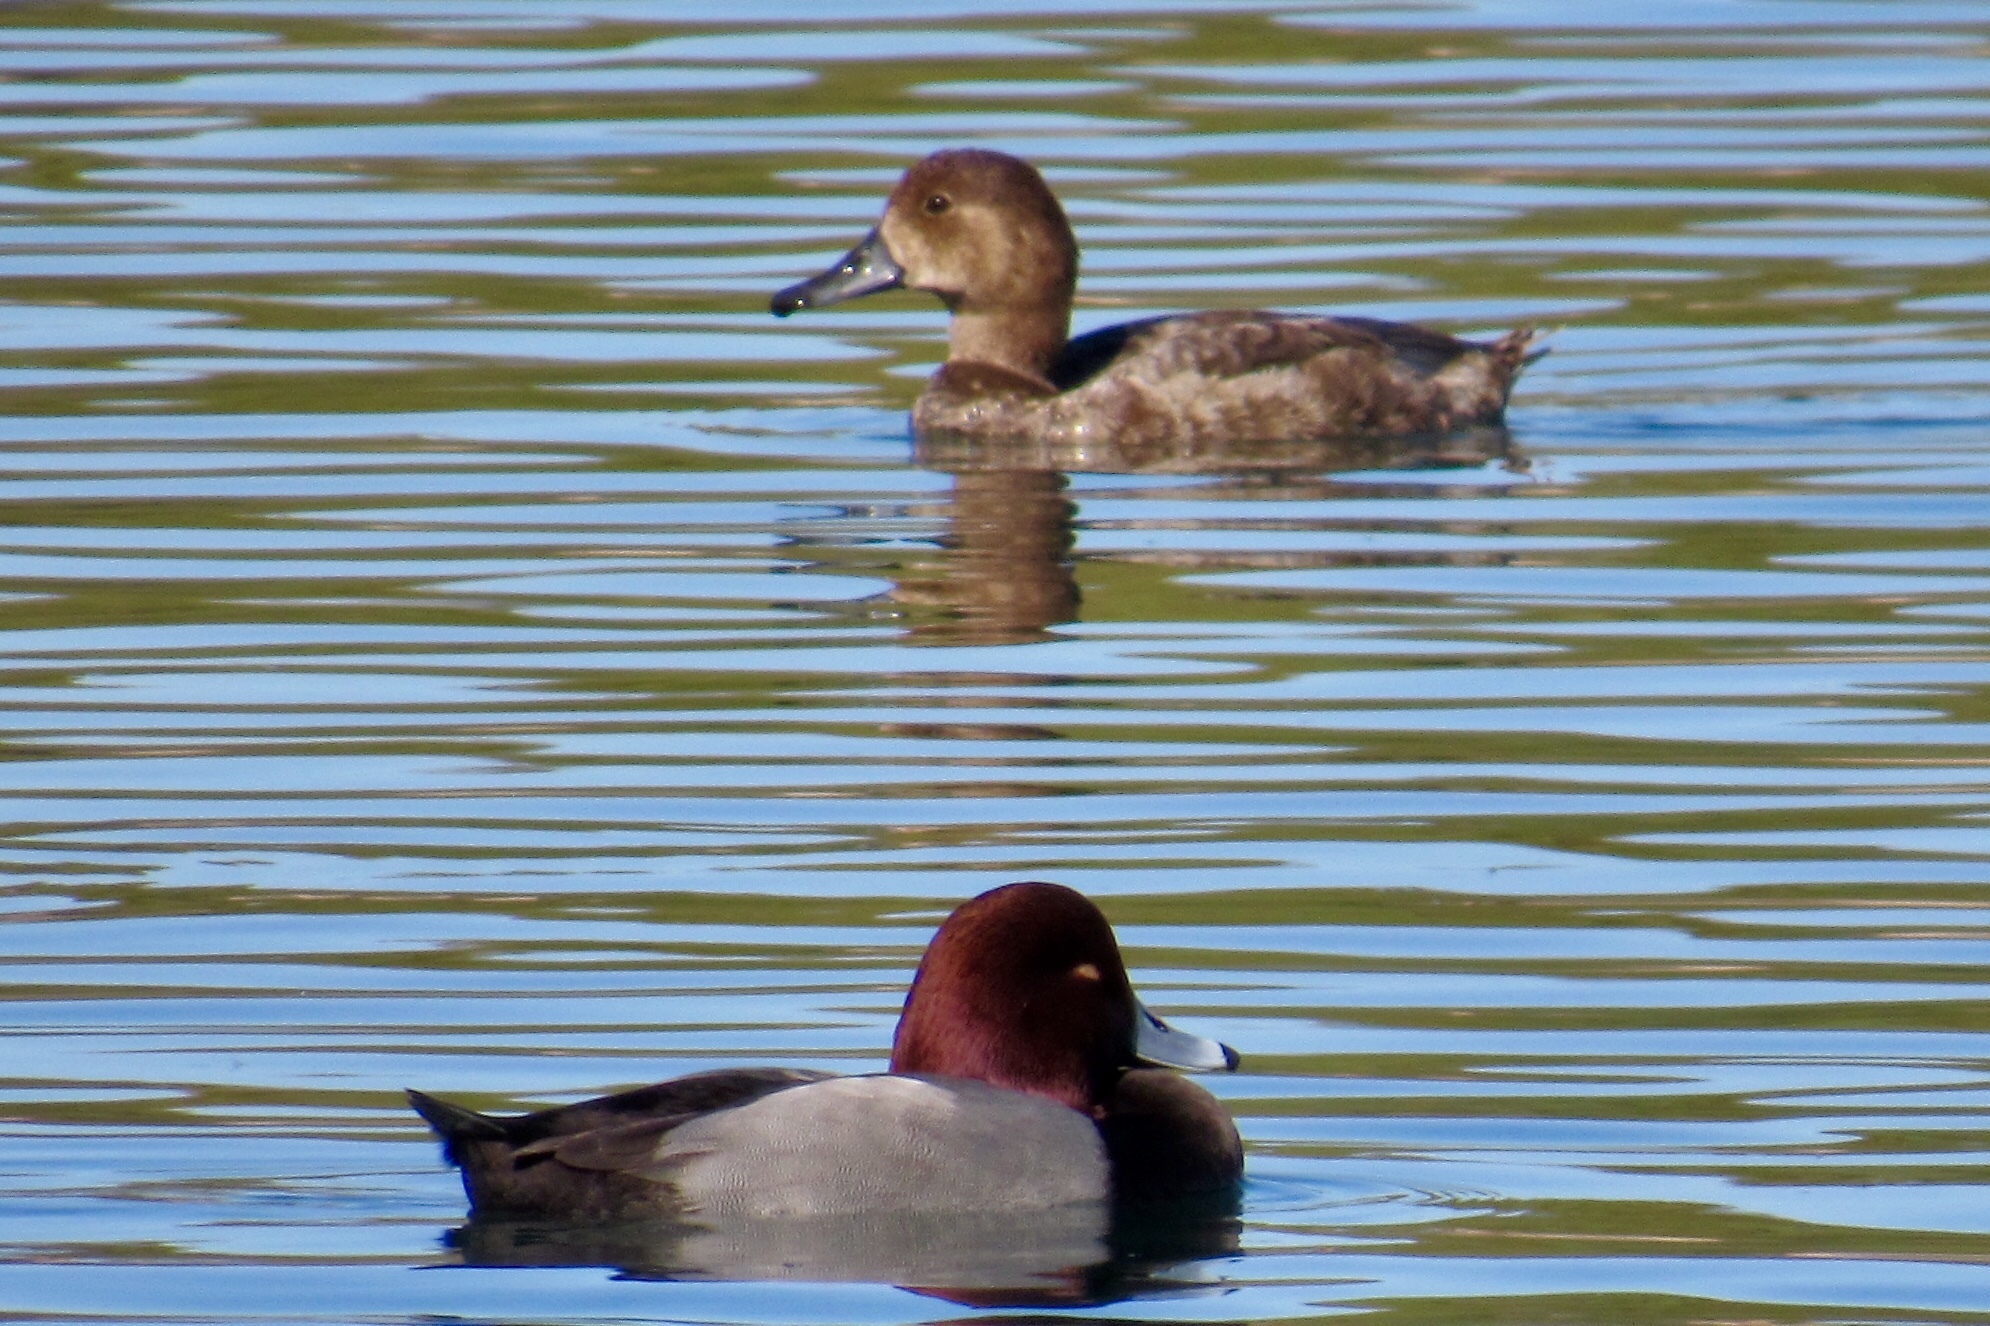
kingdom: Animalia
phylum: Chordata
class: Aves
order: Anseriformes
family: Anatidae
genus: Aythya
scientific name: Aythya americana
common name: Redhead
